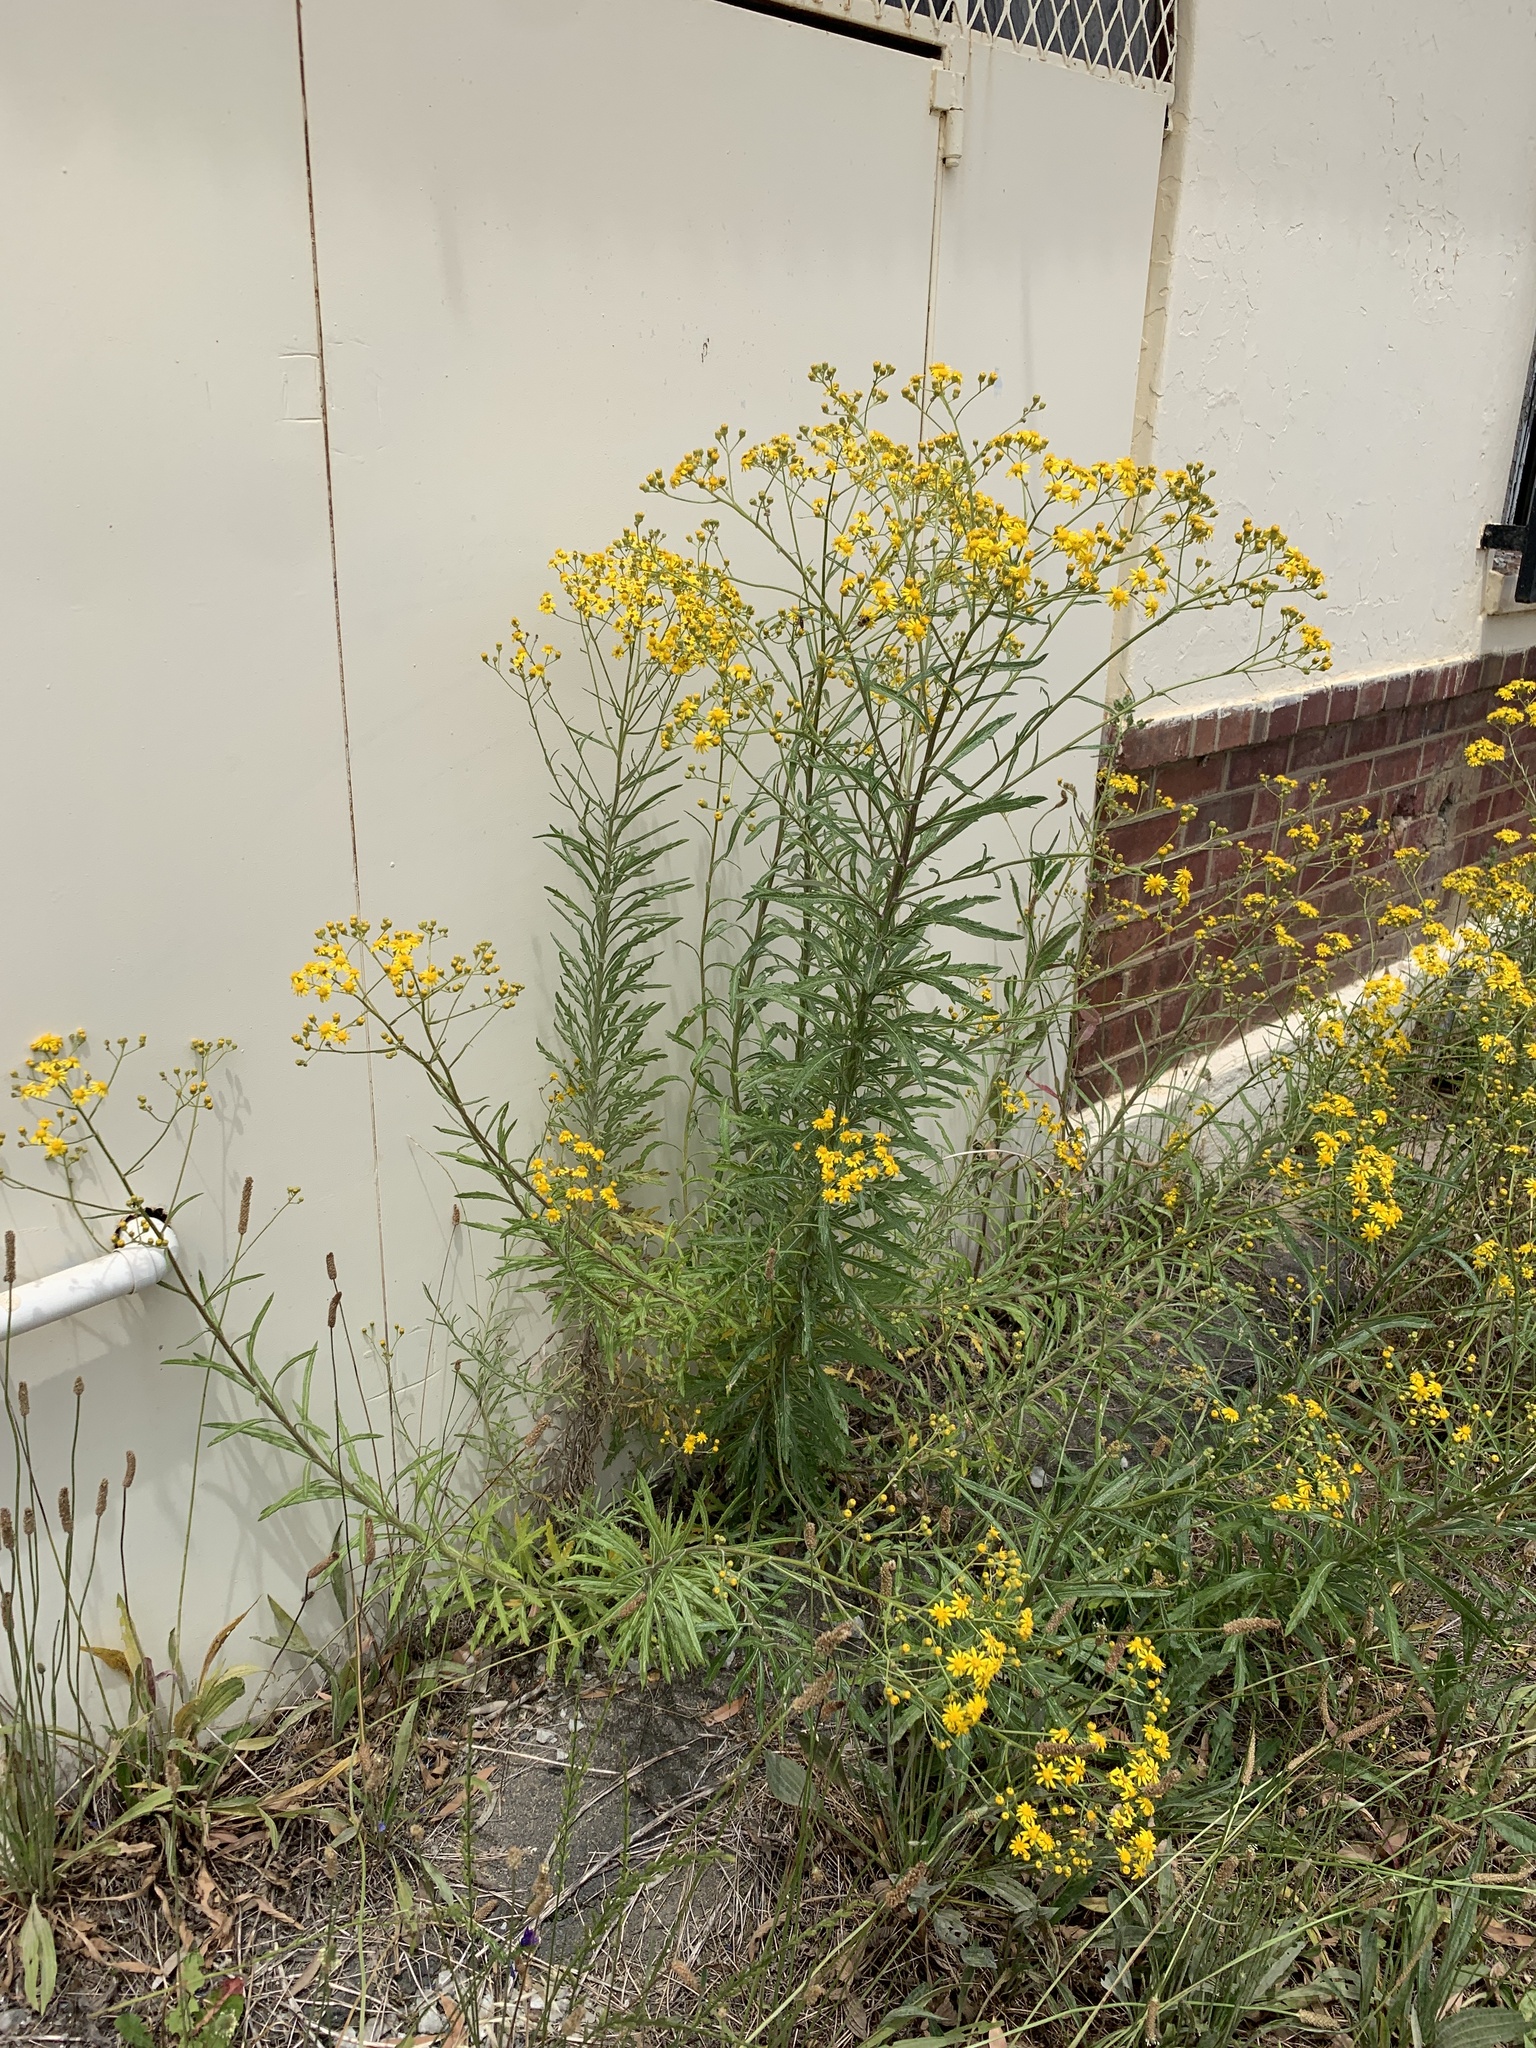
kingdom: Plantae
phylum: Tracheophyta
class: Magnoliopsida
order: Asterales
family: Asteraceae
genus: Senecio
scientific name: Senecio pterophorus
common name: Shoddy ragwort
